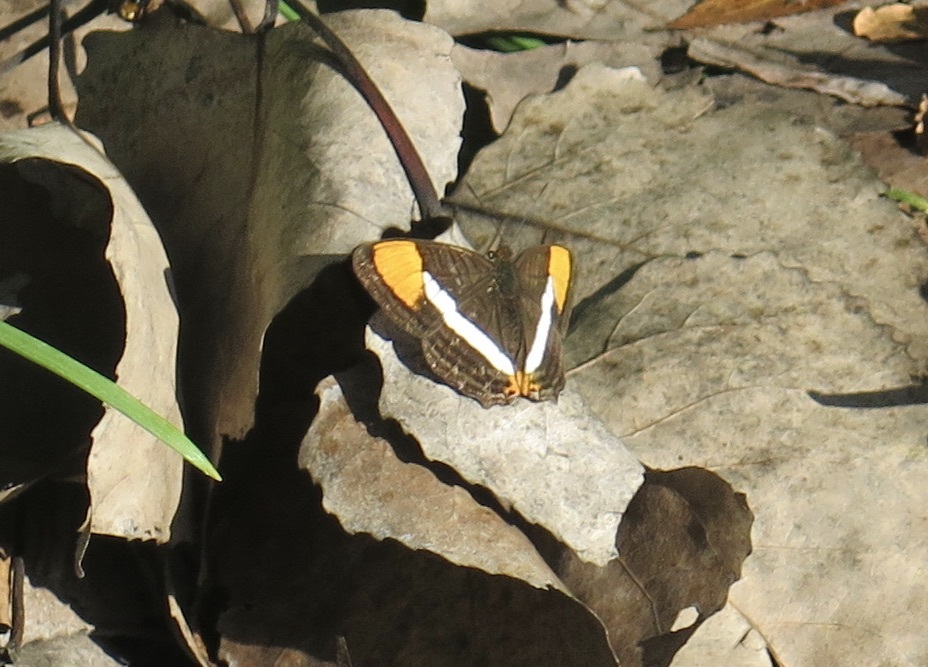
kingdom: Animalia
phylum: Arthropoda
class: Insecta
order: Lepidoptera
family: Nymphalidae
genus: Limenitis
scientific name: Limenitis syma
